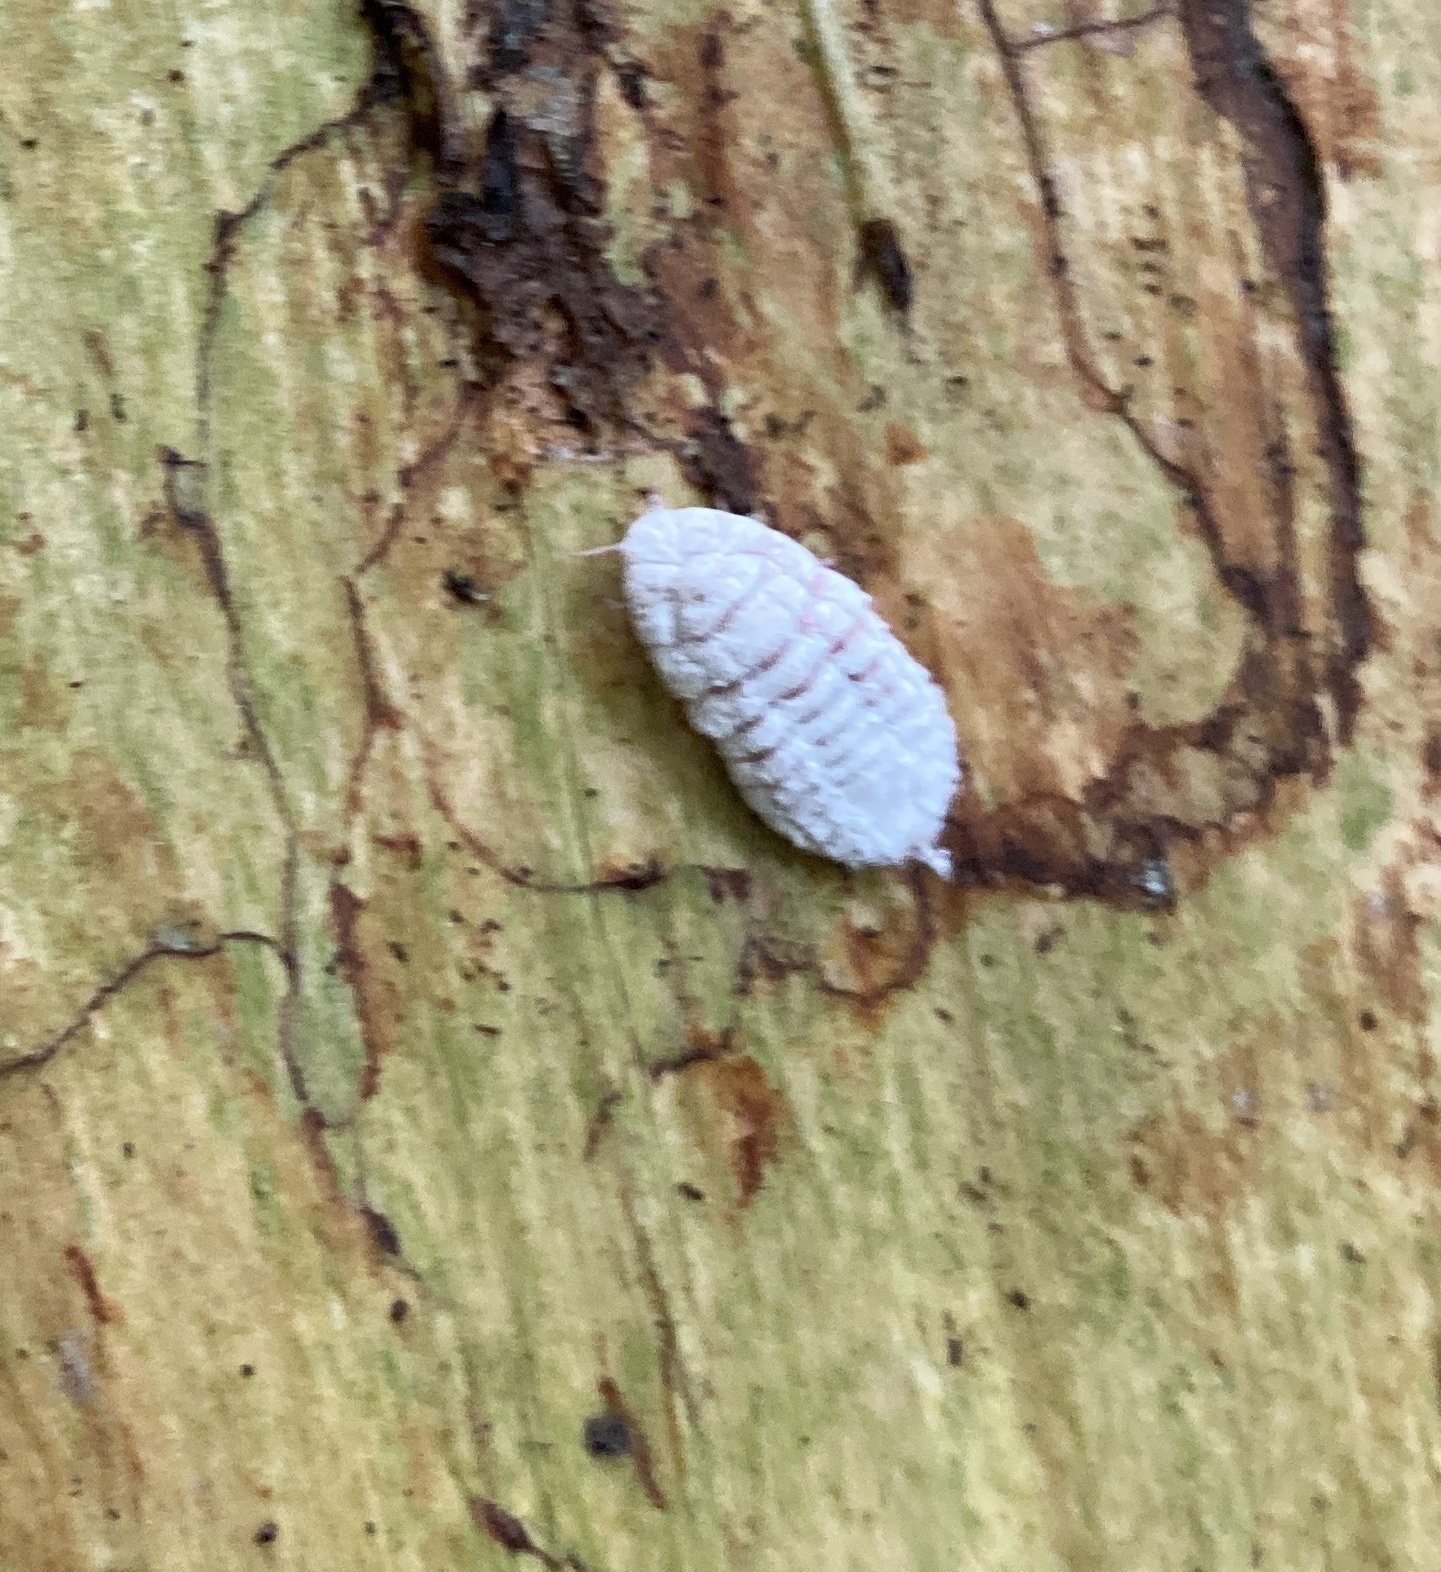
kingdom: Animalia
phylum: Arthropoda
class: Insecta
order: Hemiptera
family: Margarodidae
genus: Coelostomidia
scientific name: Coelostomidia zealandica
